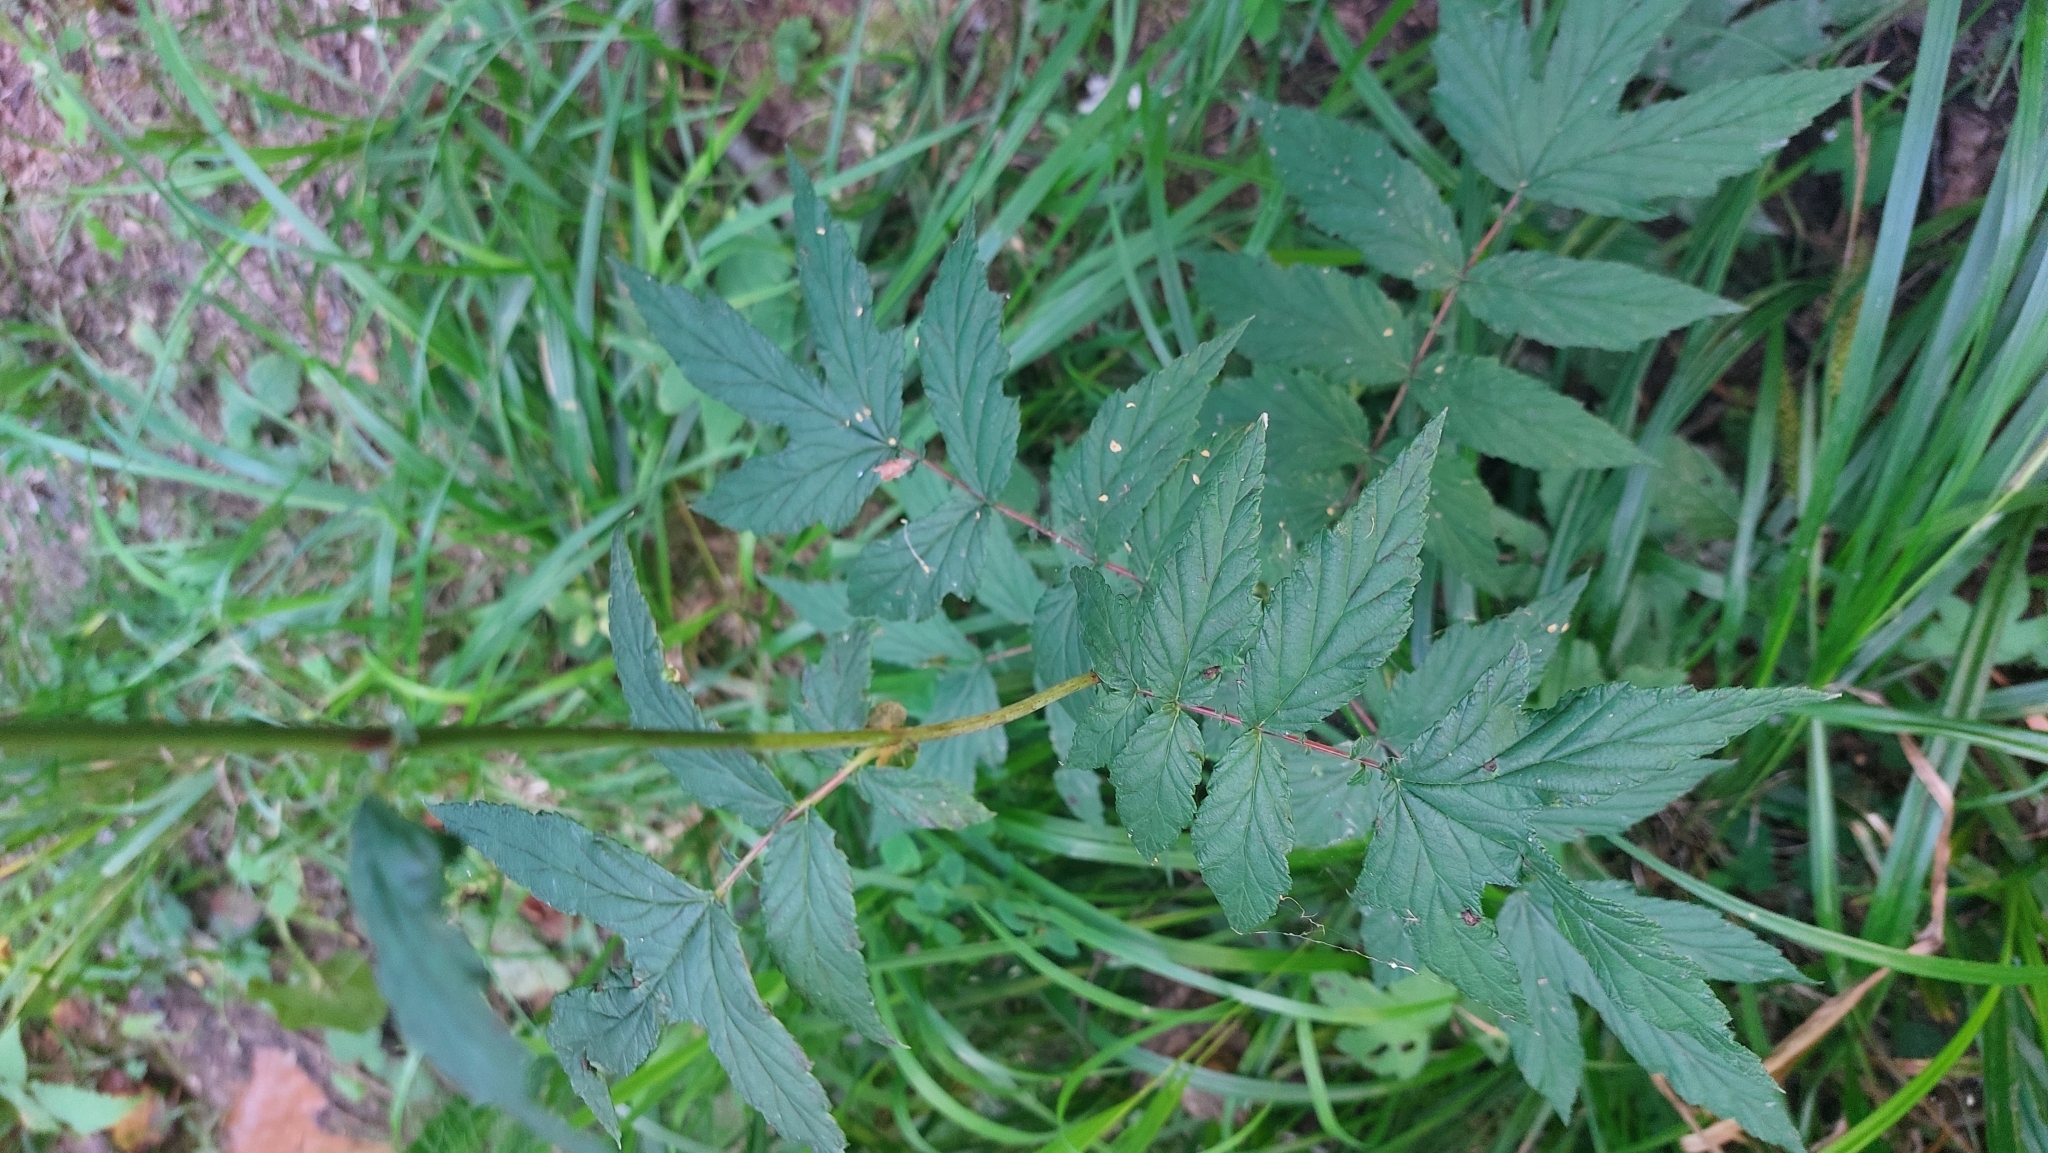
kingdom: Plantae
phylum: Tracheophyta
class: Magnoliopsida
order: Rosales
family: Rosaceae
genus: Filipendula
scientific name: Filipendula ulmaria
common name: Meadowsweet
